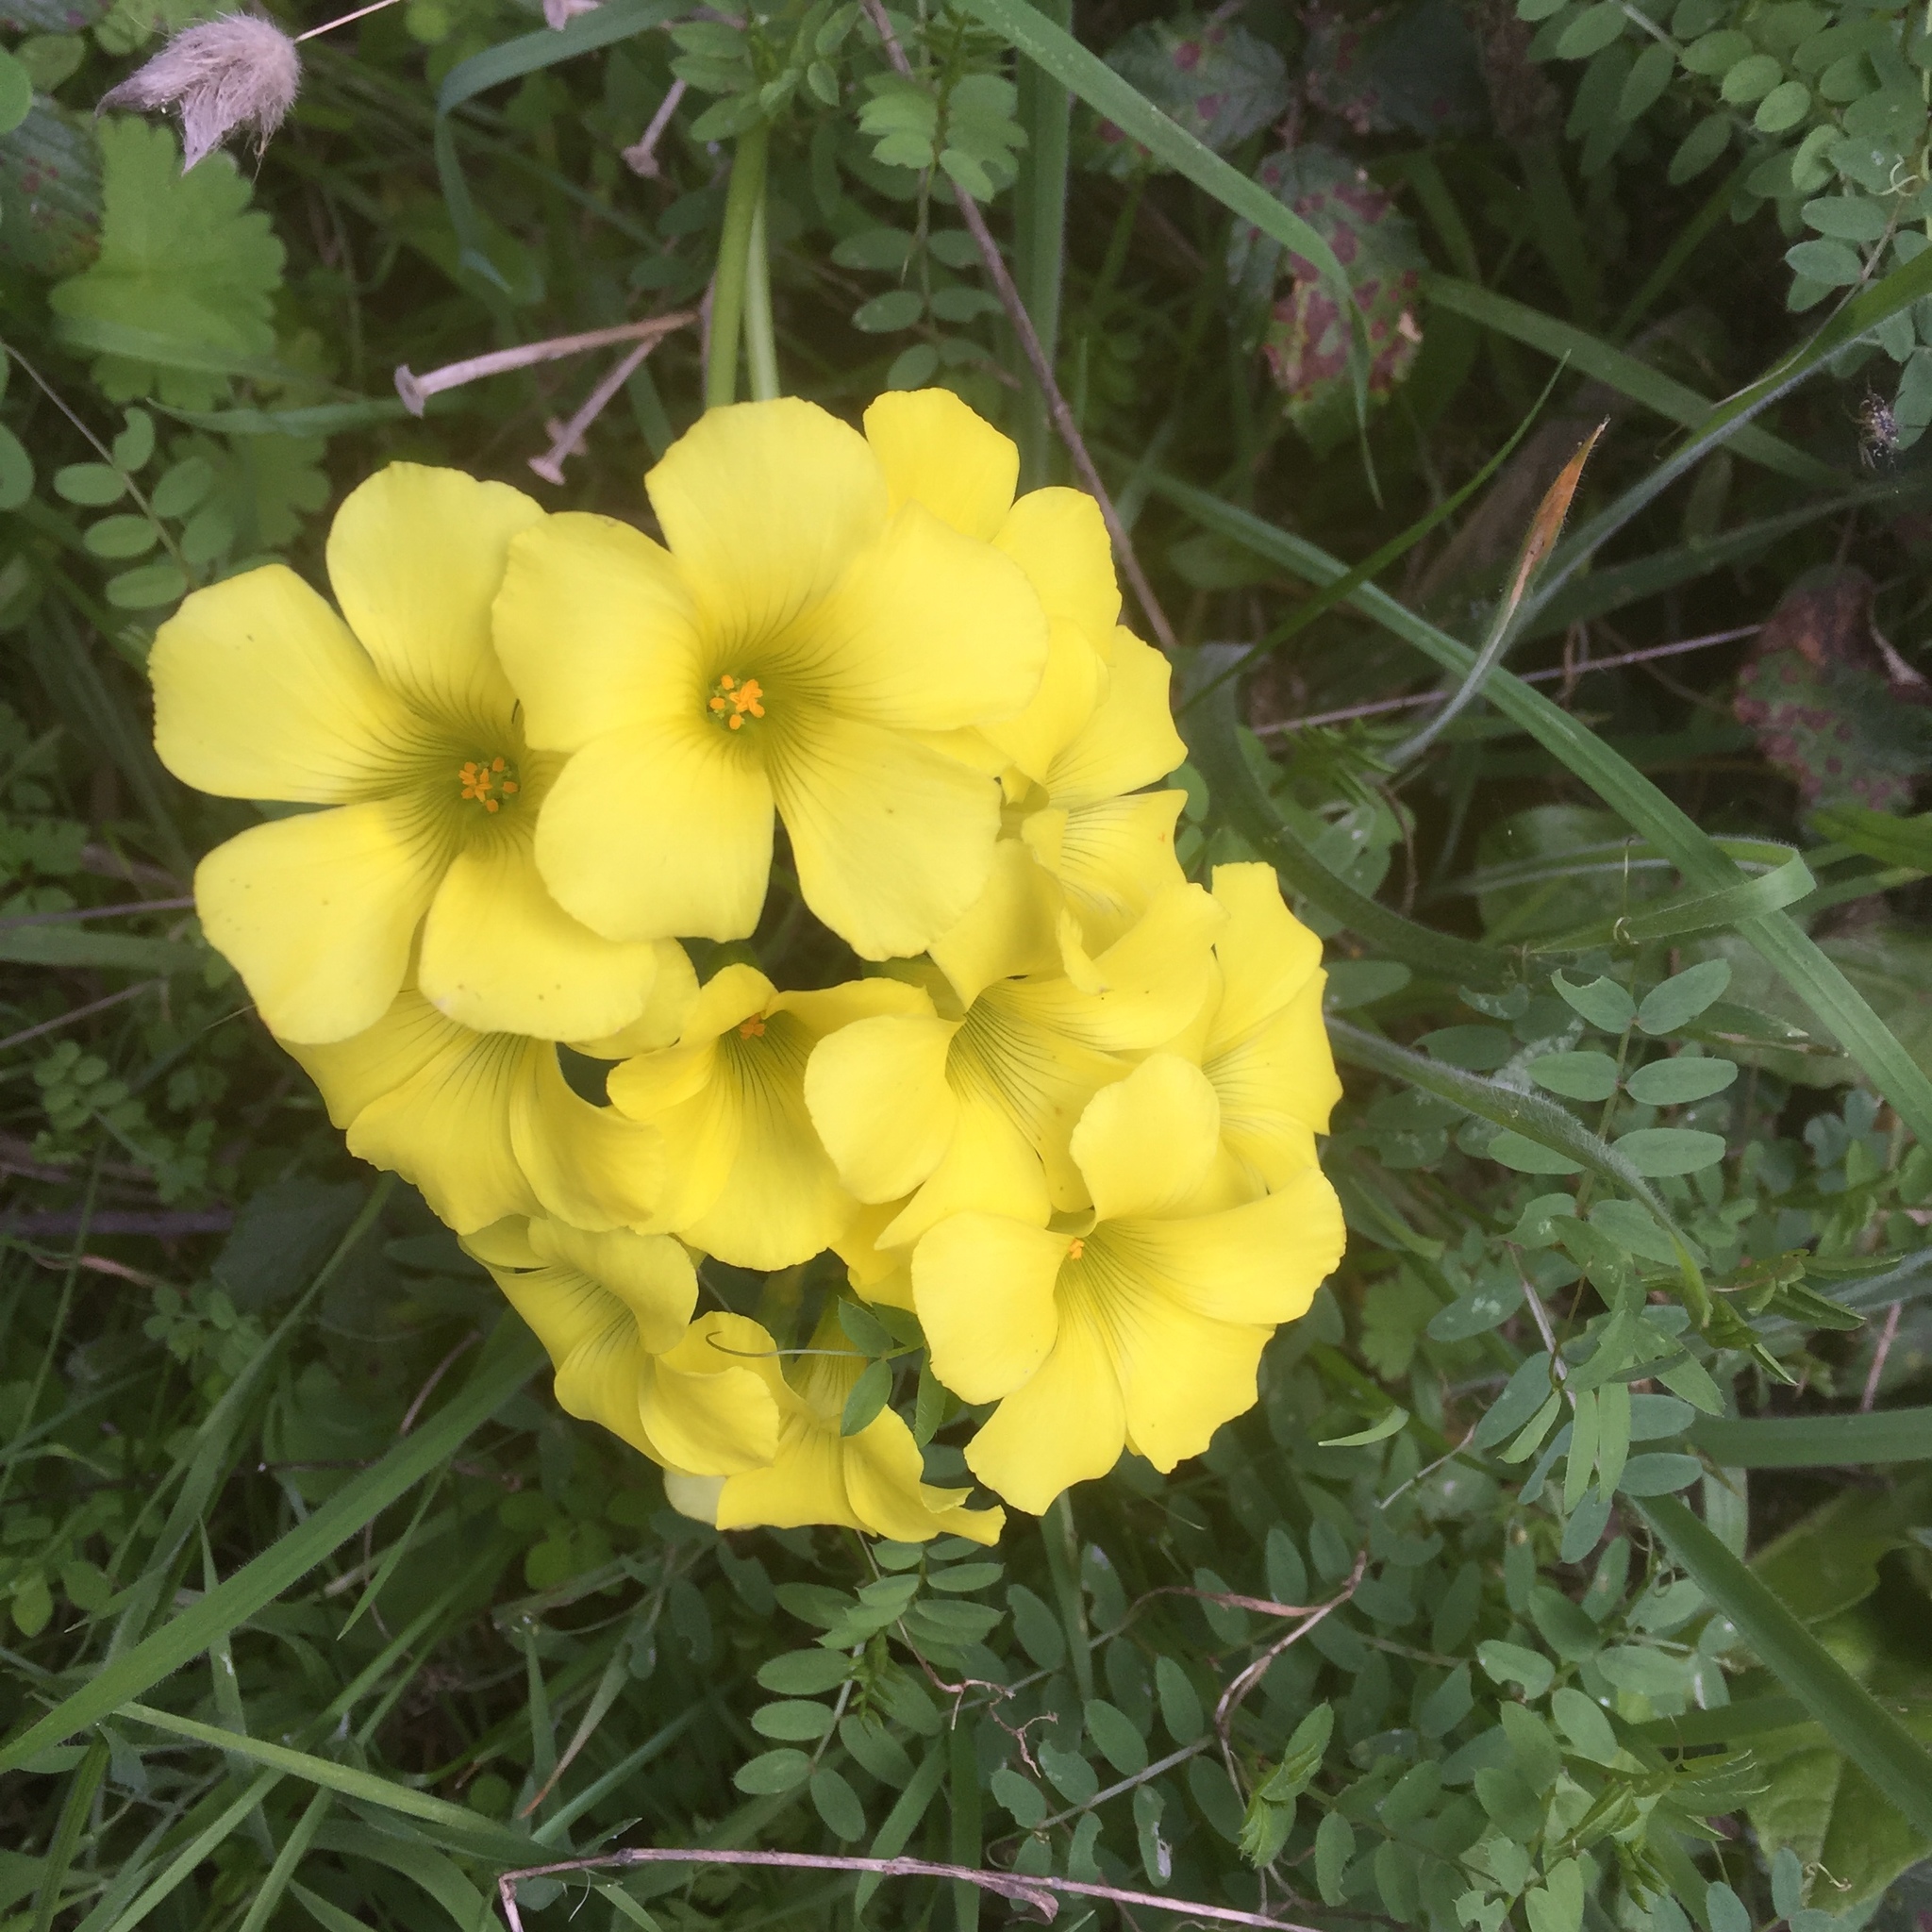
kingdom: Plantae
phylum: Tracheophyta
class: Magnoliopsida
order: Oxalidales
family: Oxalidaceae
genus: Oxalis
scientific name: Oxalis pes-caprae
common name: Bermuda-buttercup
